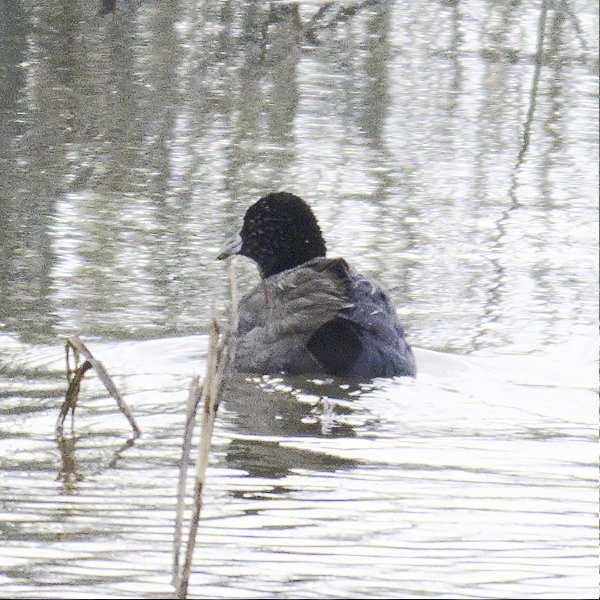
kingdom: Animalia
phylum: Chordata
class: Aves
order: Gruiformes
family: Rallidae
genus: Fulica
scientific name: Fulica atra
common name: Eurasian coot
